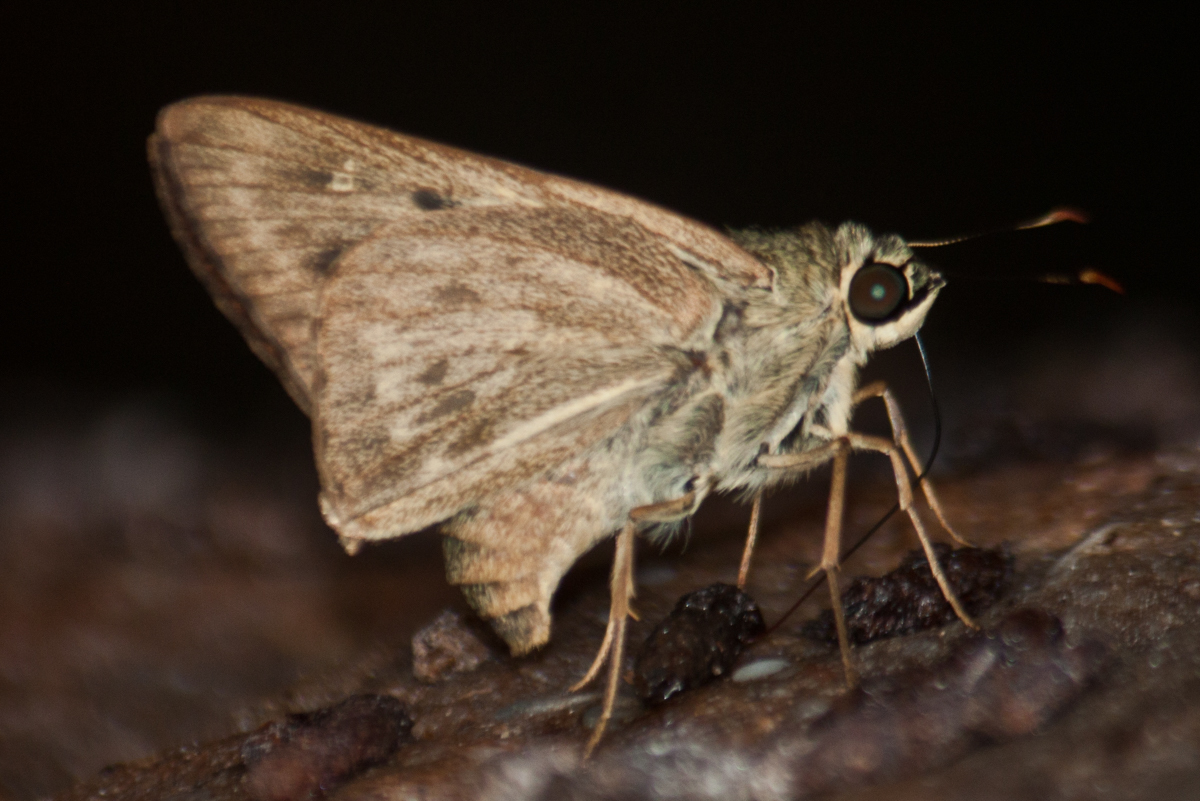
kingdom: Animalia
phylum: Arthropoda
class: Insecta
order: Lepidoptera
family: Hesperiidae
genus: Pithauria
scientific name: Pithauria stramineipennis
